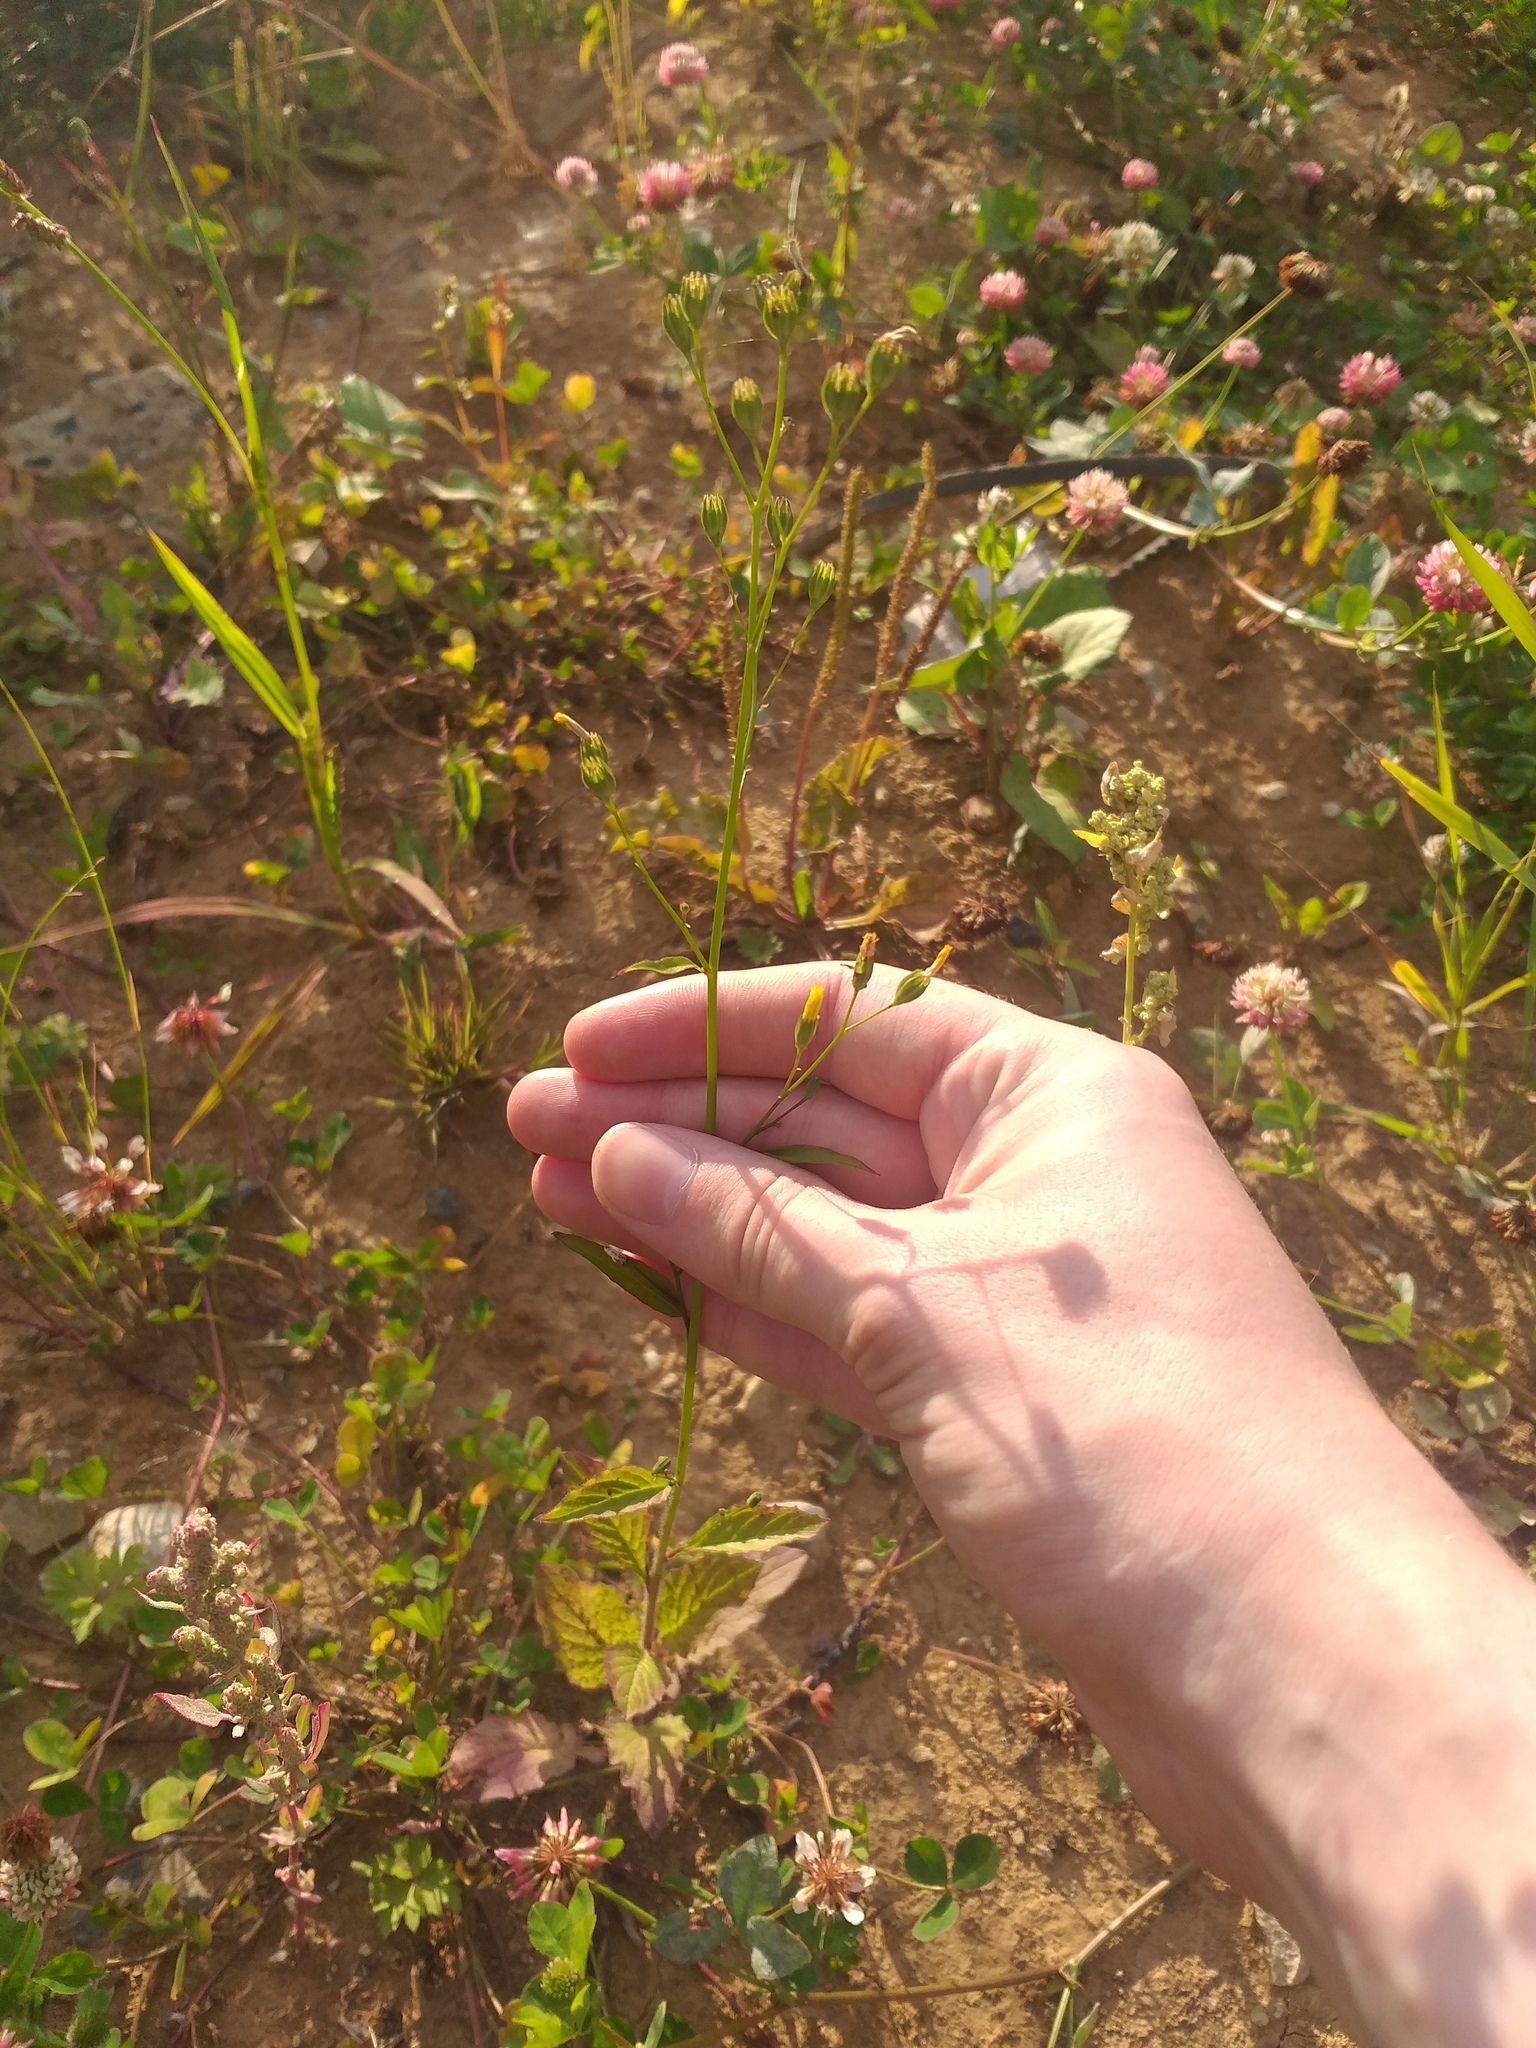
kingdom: Plantae
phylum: Tracheophyta
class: Magnoliopsida
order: Asterales
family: Asteraceae
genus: Lapsana
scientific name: Lapsana communis
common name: Nipplewort
